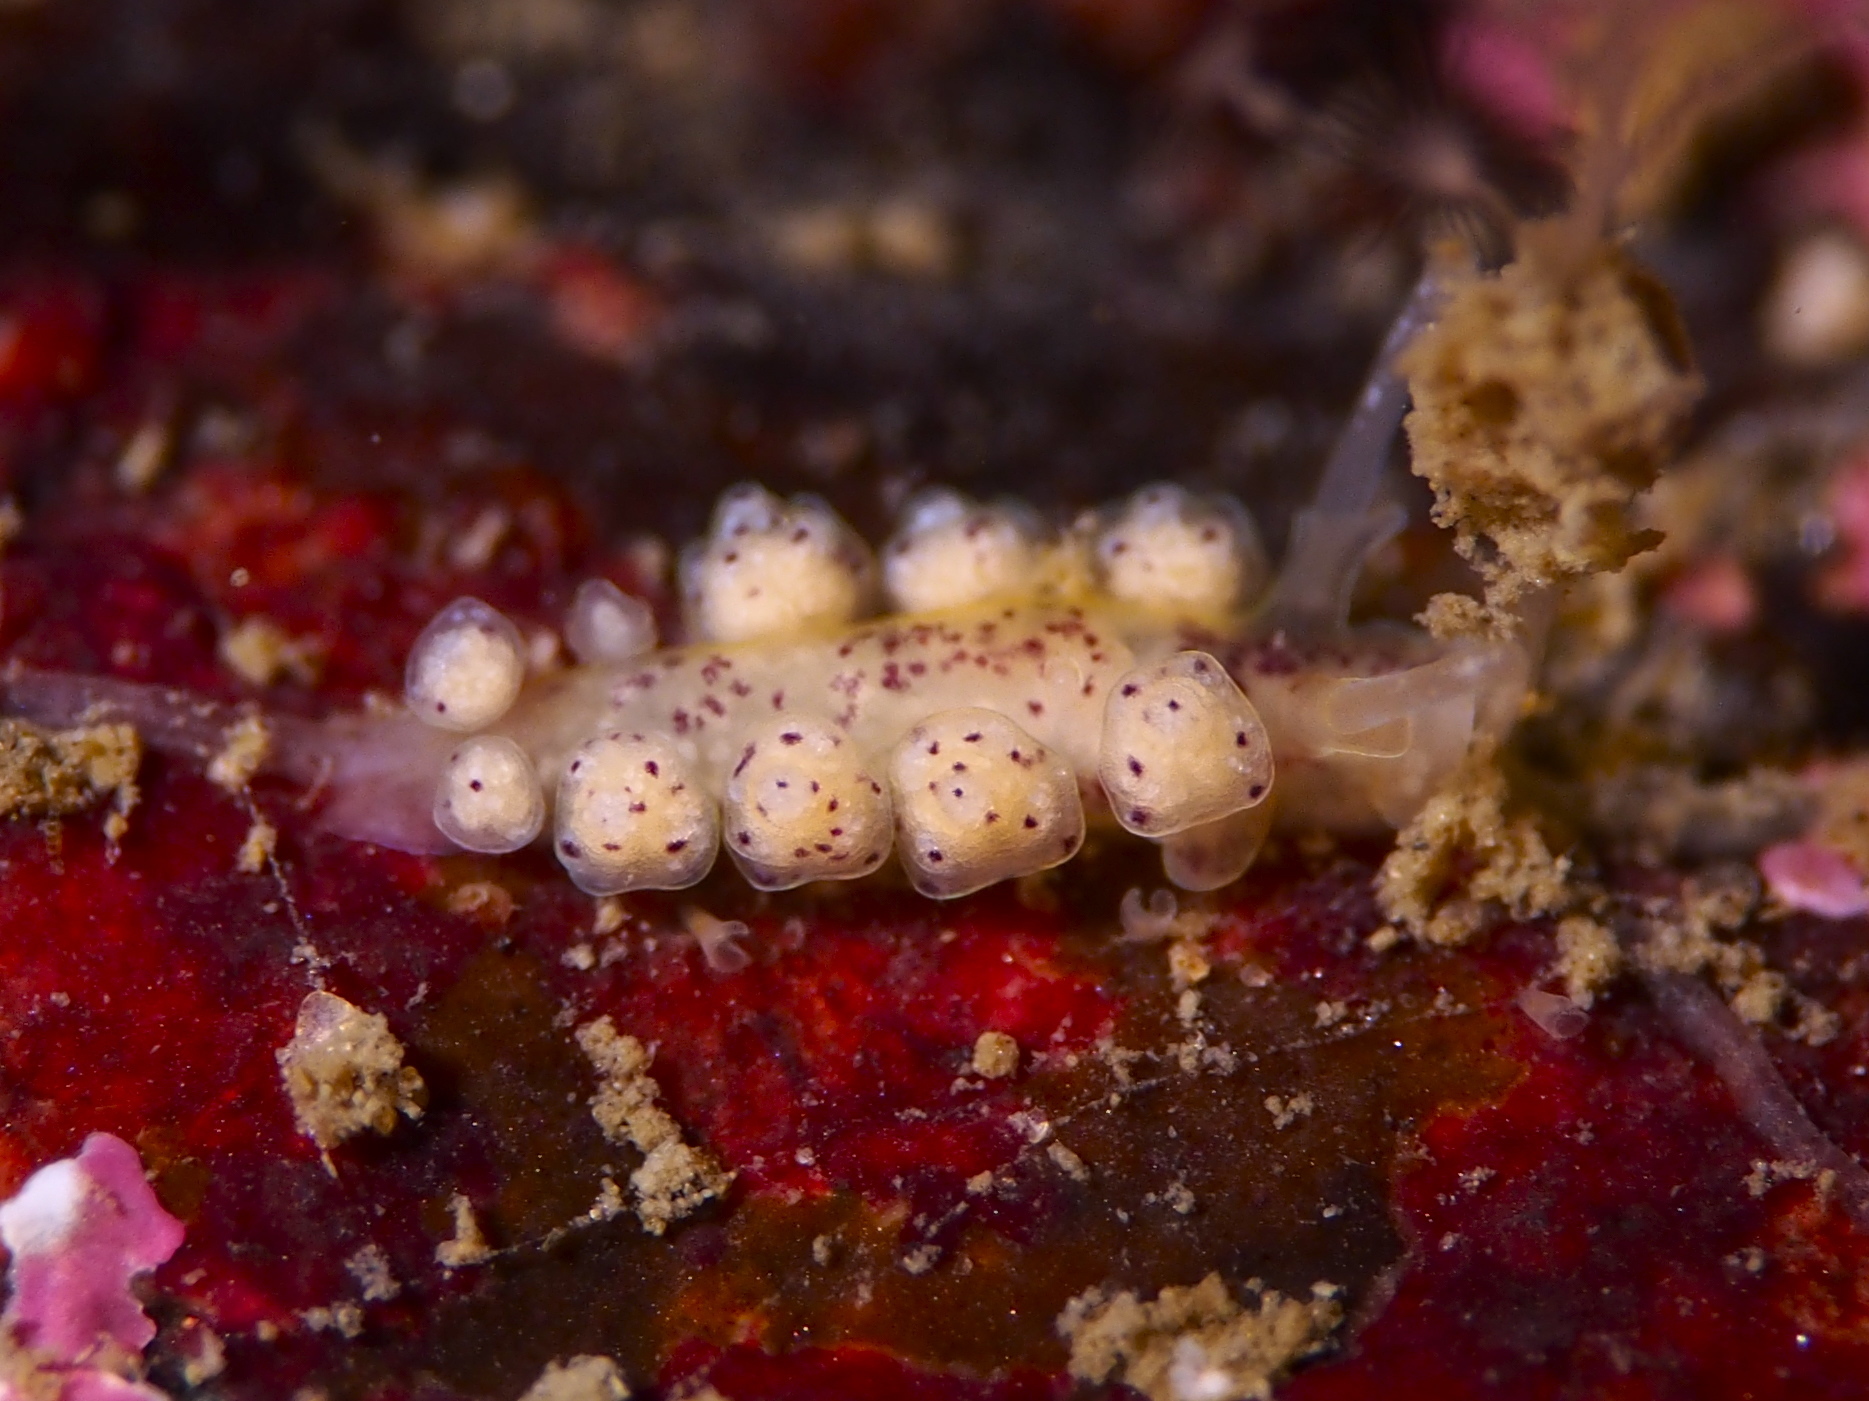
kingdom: Animalia
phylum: Mollusca
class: Gastropoda
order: Nudibranchia
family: Dotidae
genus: Doto
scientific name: Doto dunnei
